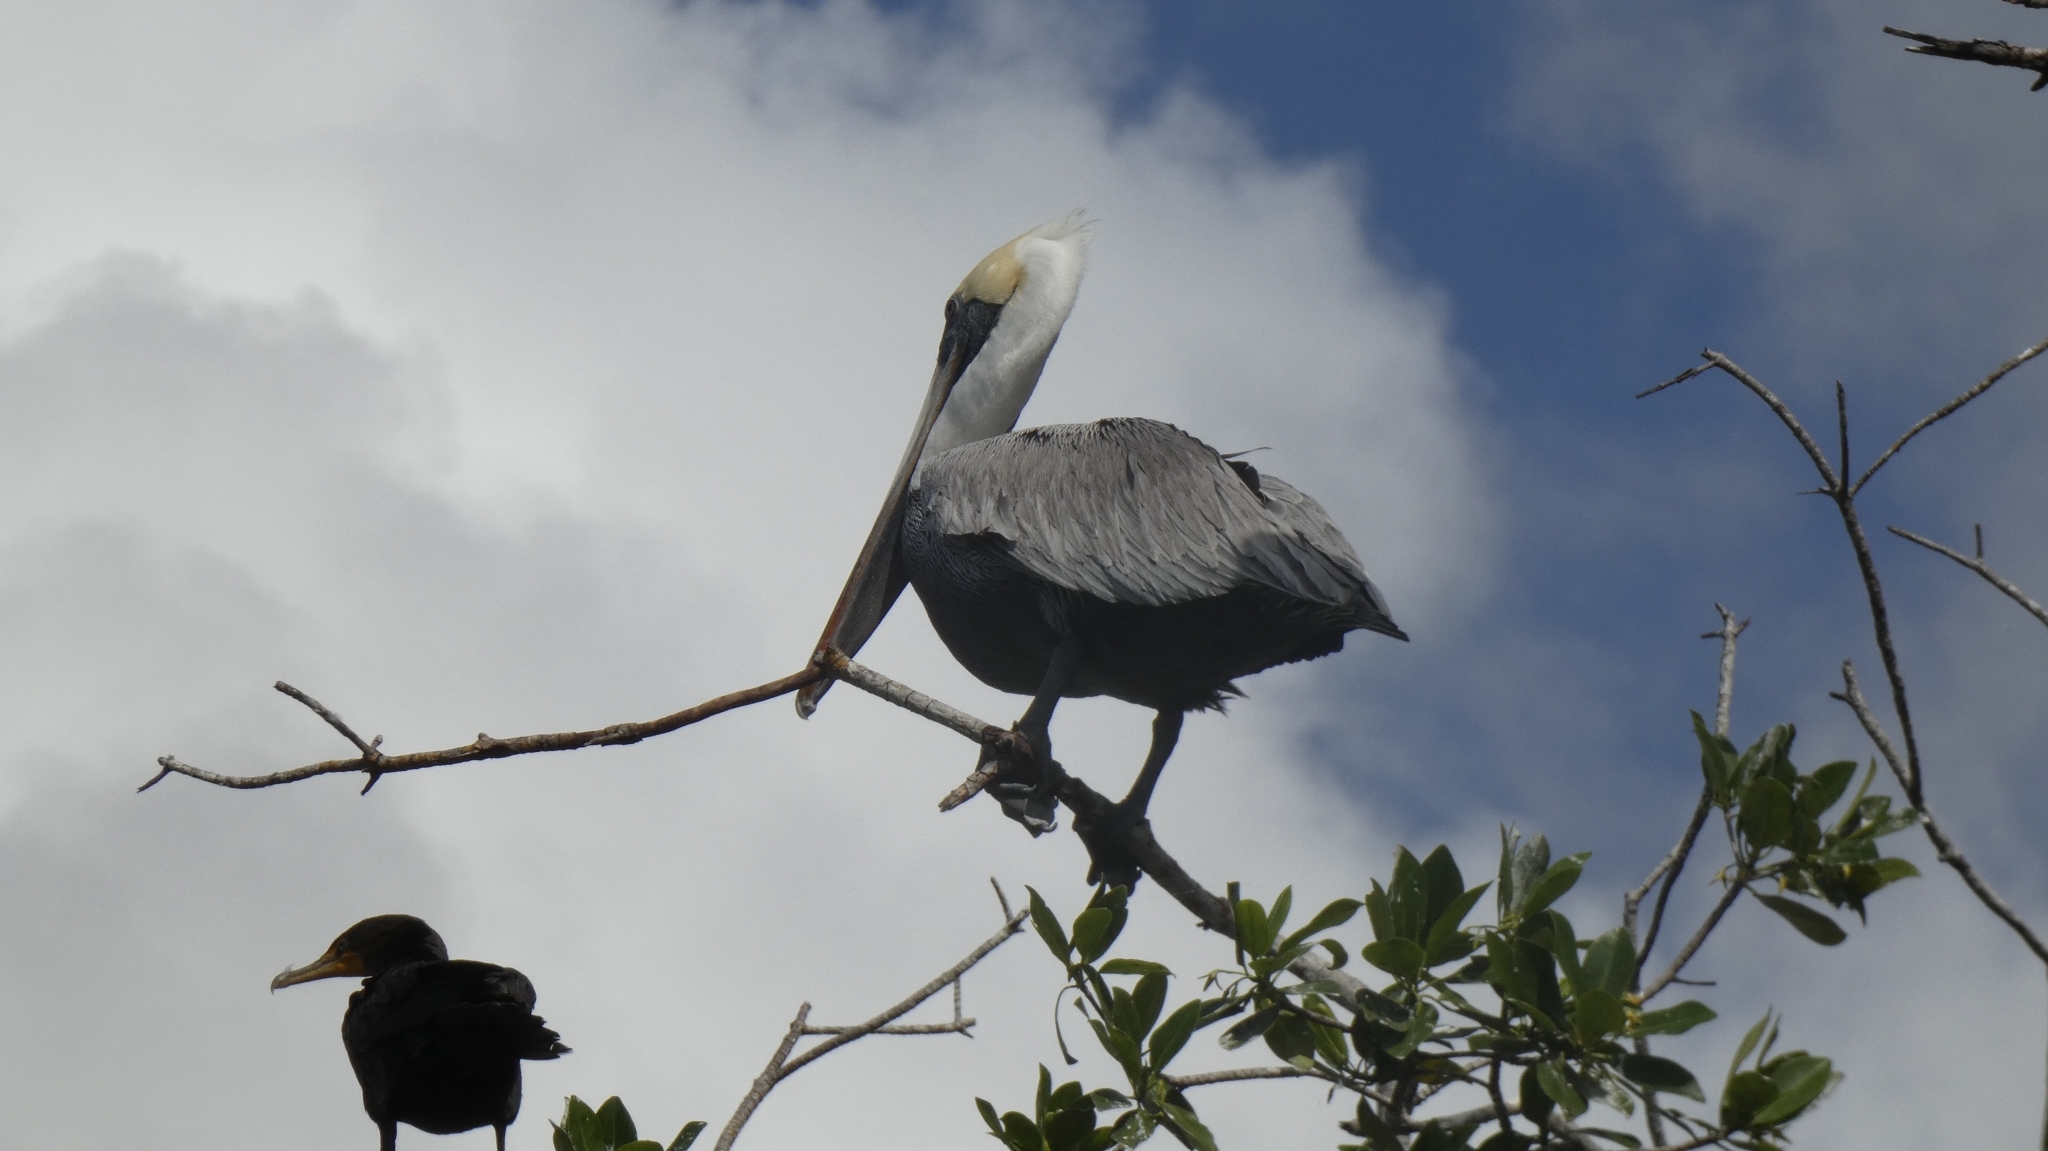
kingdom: Animalia
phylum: Chordata
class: Aves
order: Pelecaniformes
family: Pelecanidae
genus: Pelecanus
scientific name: Pelecanus occidentalis
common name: Brown pelican
